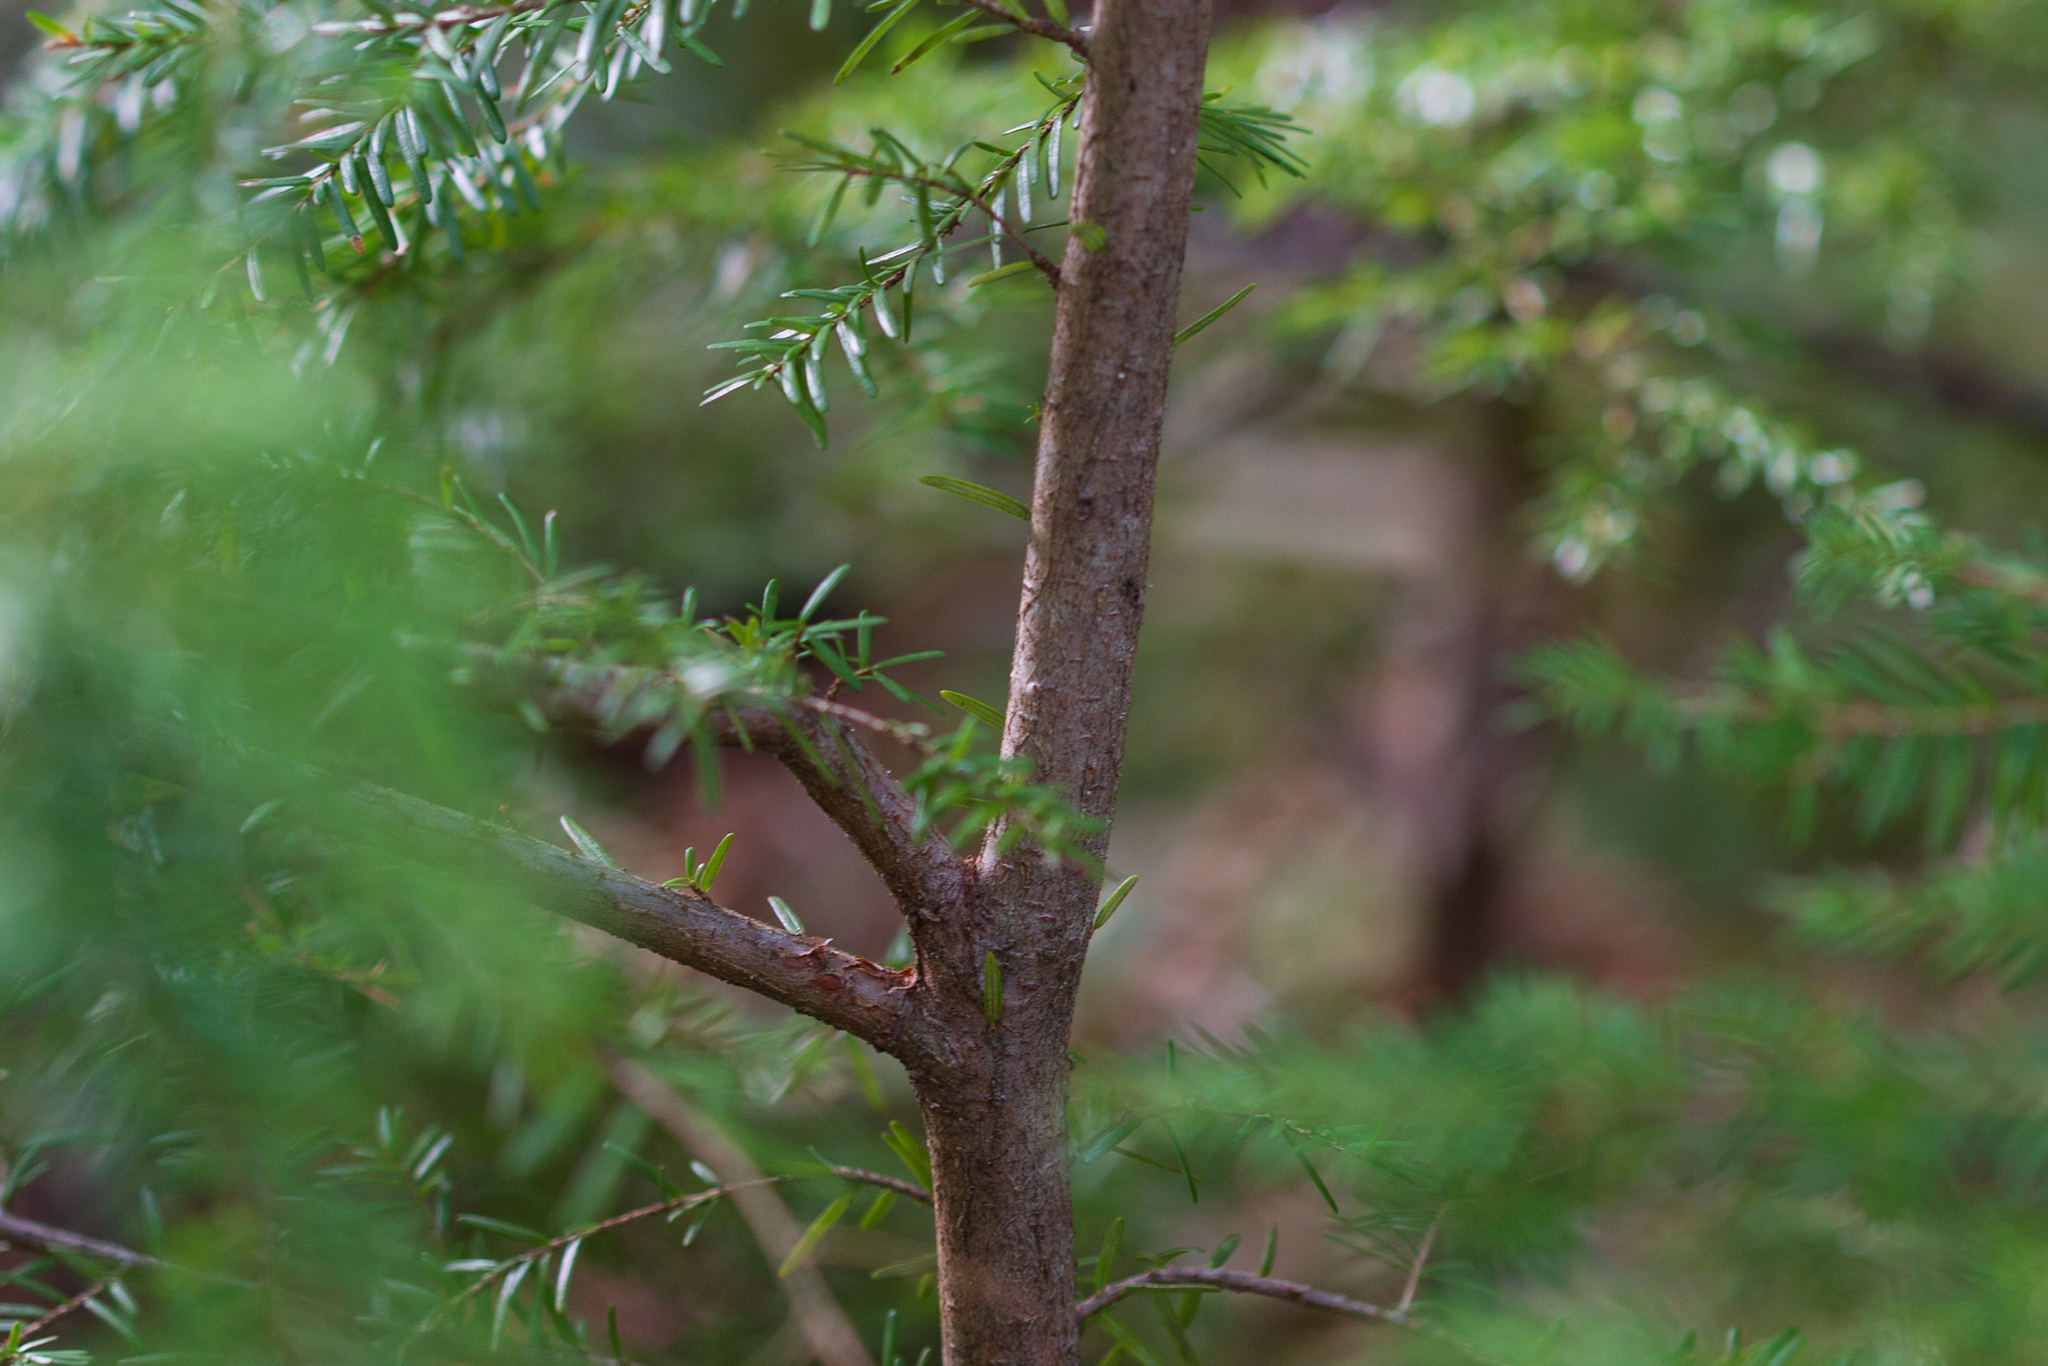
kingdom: Plantae
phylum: Tracheophyta
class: Pinopsida
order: Pinales
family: Pinaceae
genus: Tsuga
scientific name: Tsuga heterophylla
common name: Western hemlock
